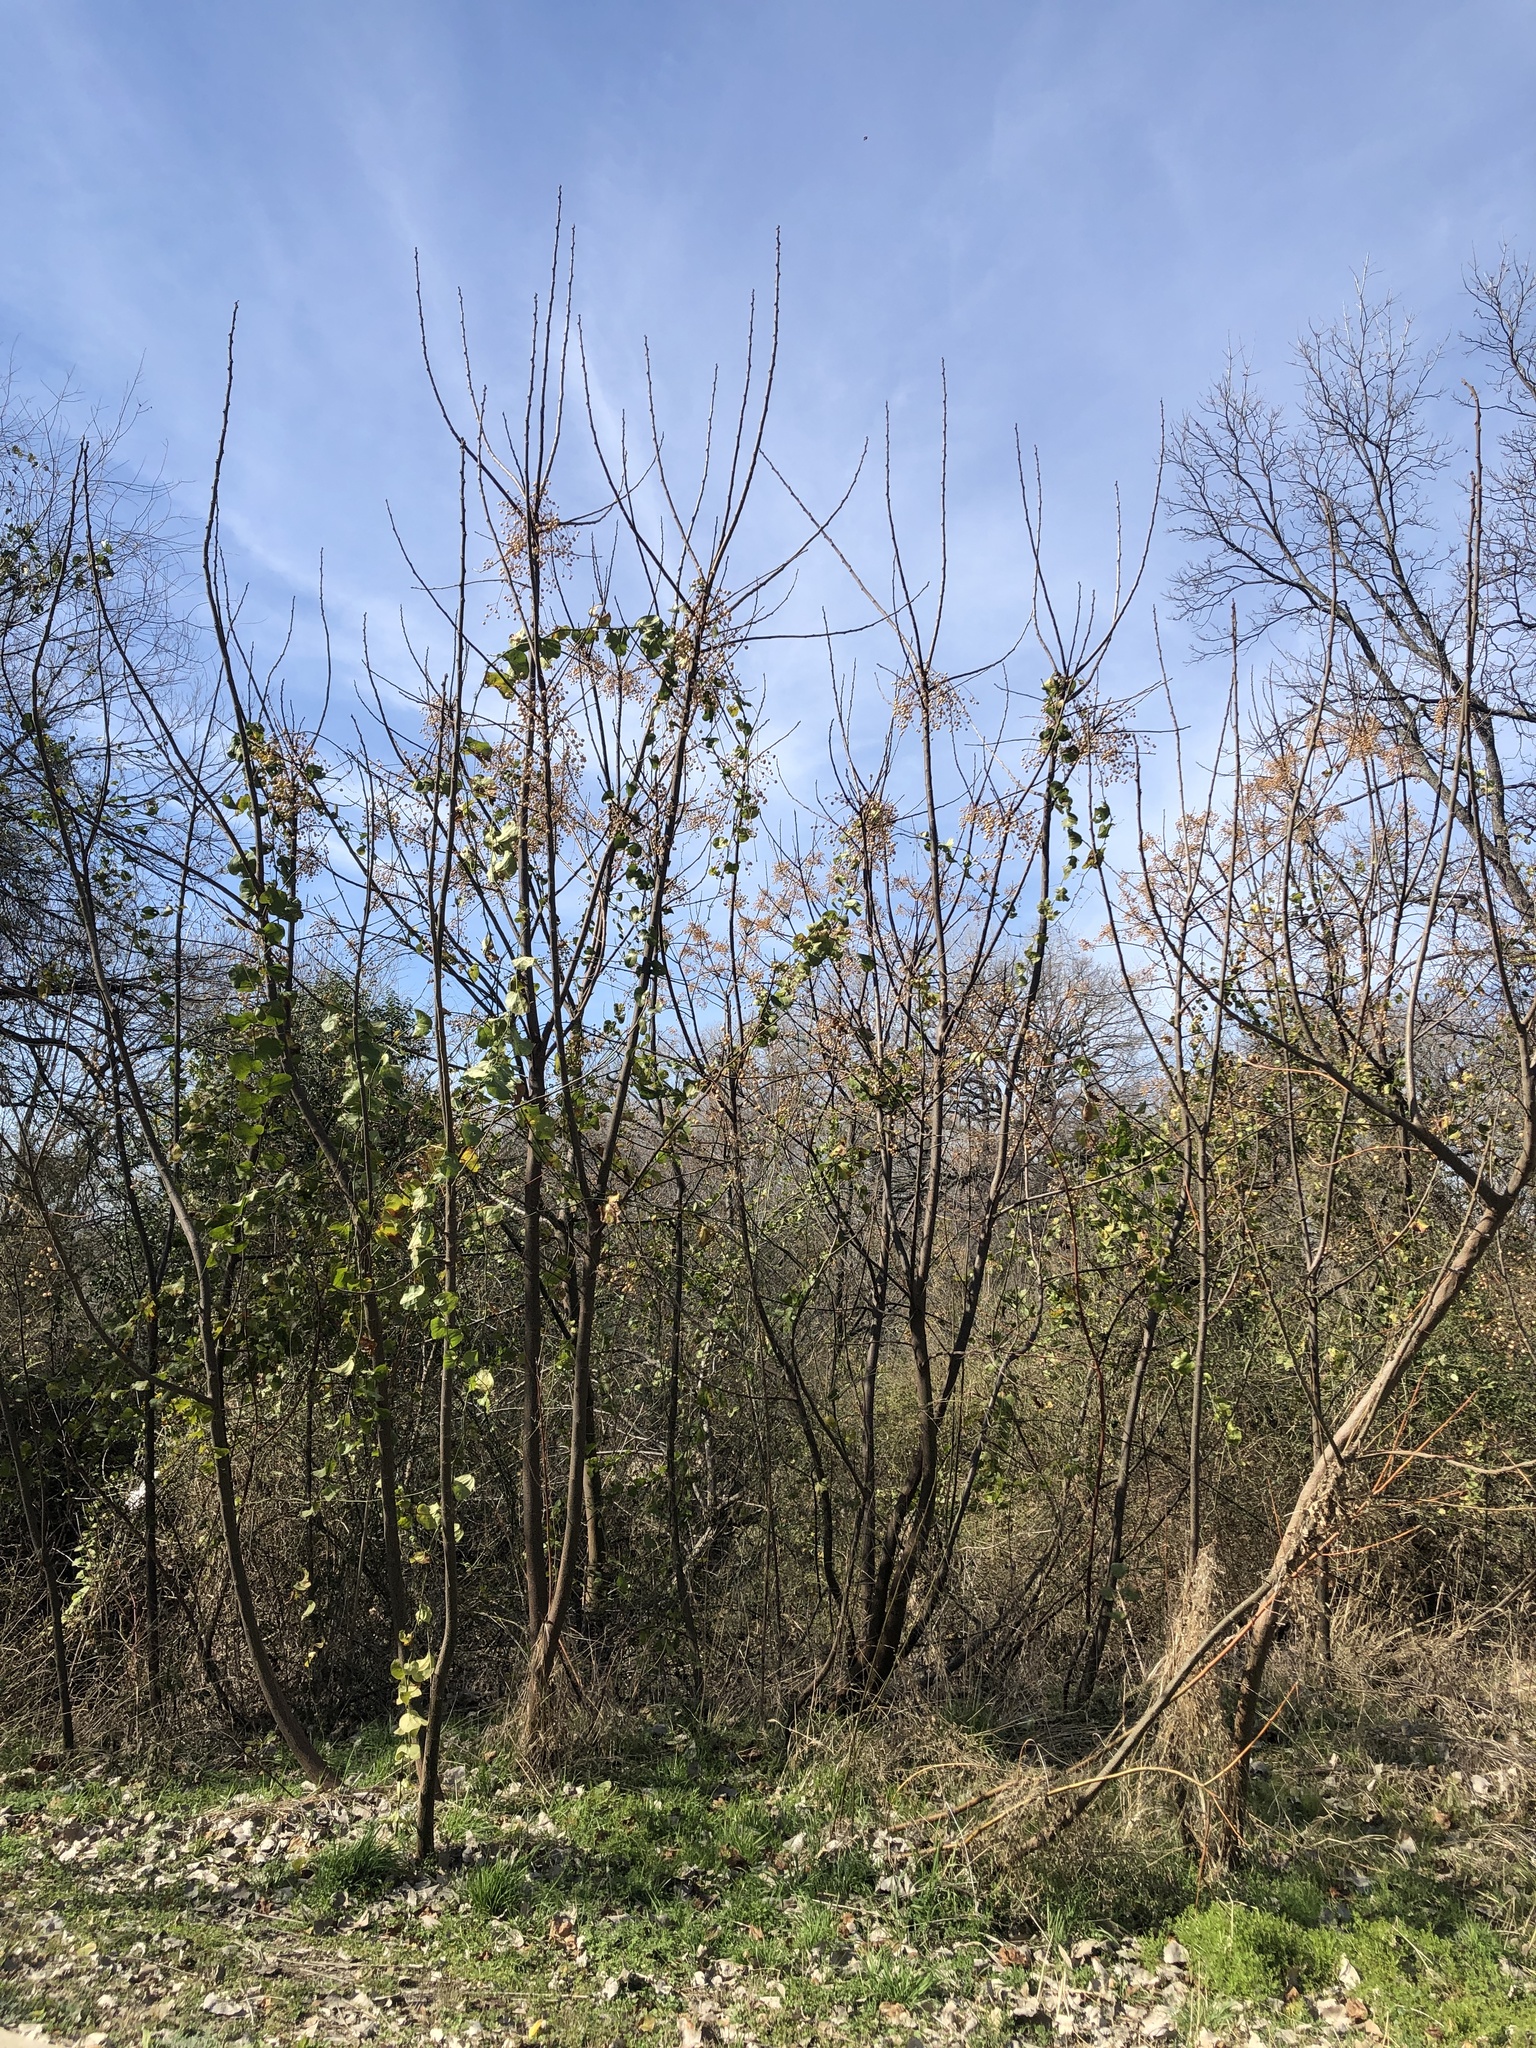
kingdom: Plantae
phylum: Tracheophyta
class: Magnoliopsida
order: Sapindales
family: Meliaceae
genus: Melia
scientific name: Melia azedarach
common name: Chinaberrytree
